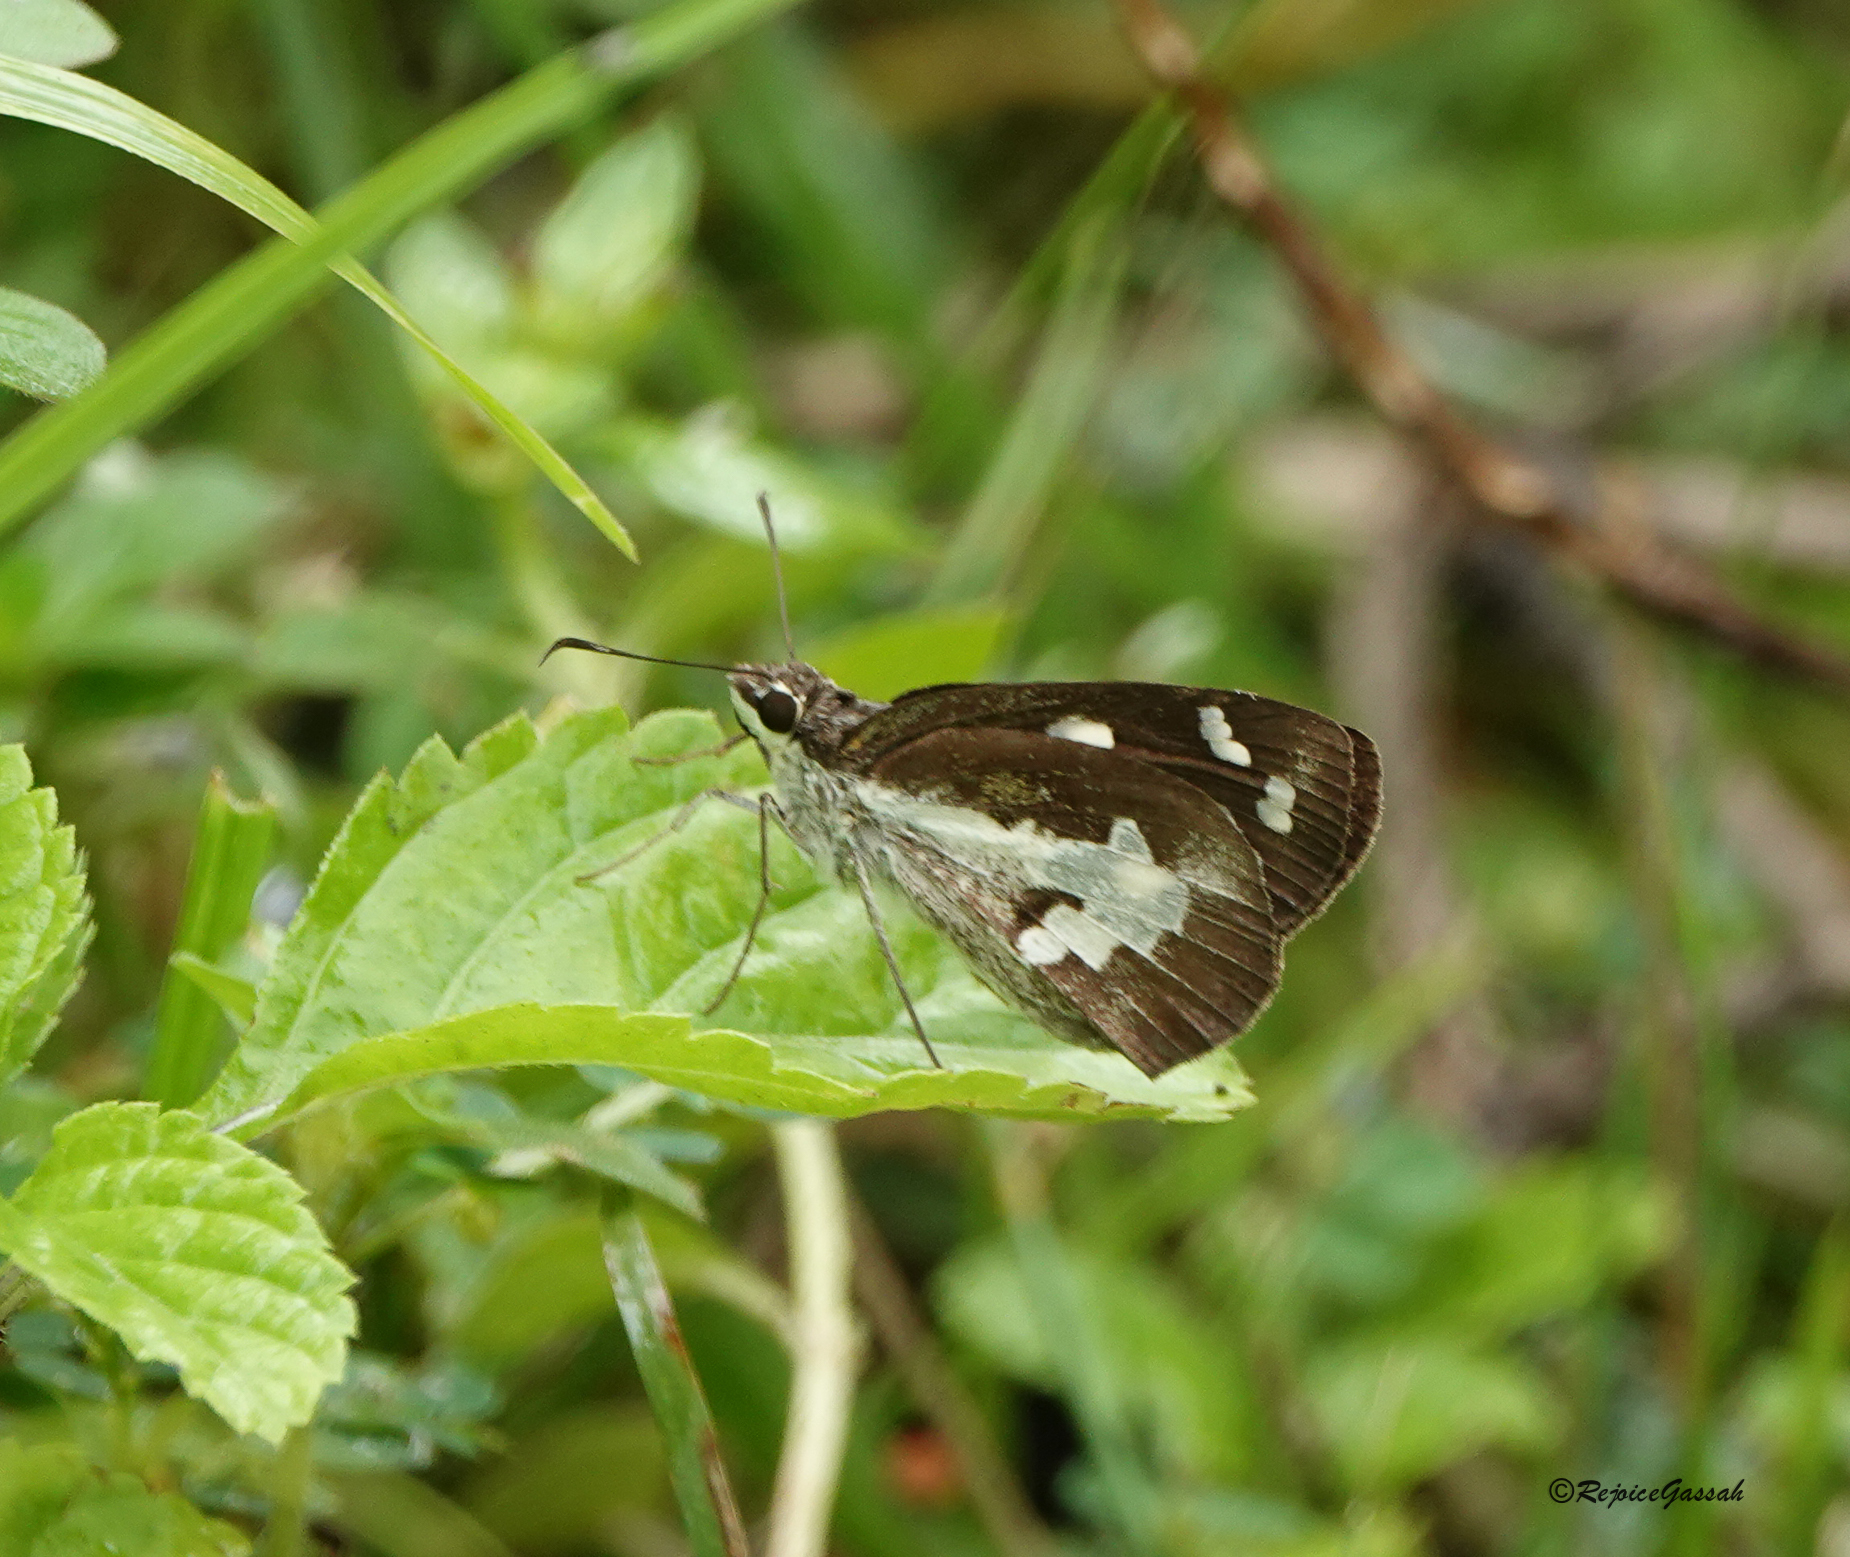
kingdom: Animalia
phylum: Arthropoda
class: Insecta
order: Lepidoptera
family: Hesperiidae
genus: Udaspes
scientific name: Udaspes folus
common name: Grass demon
